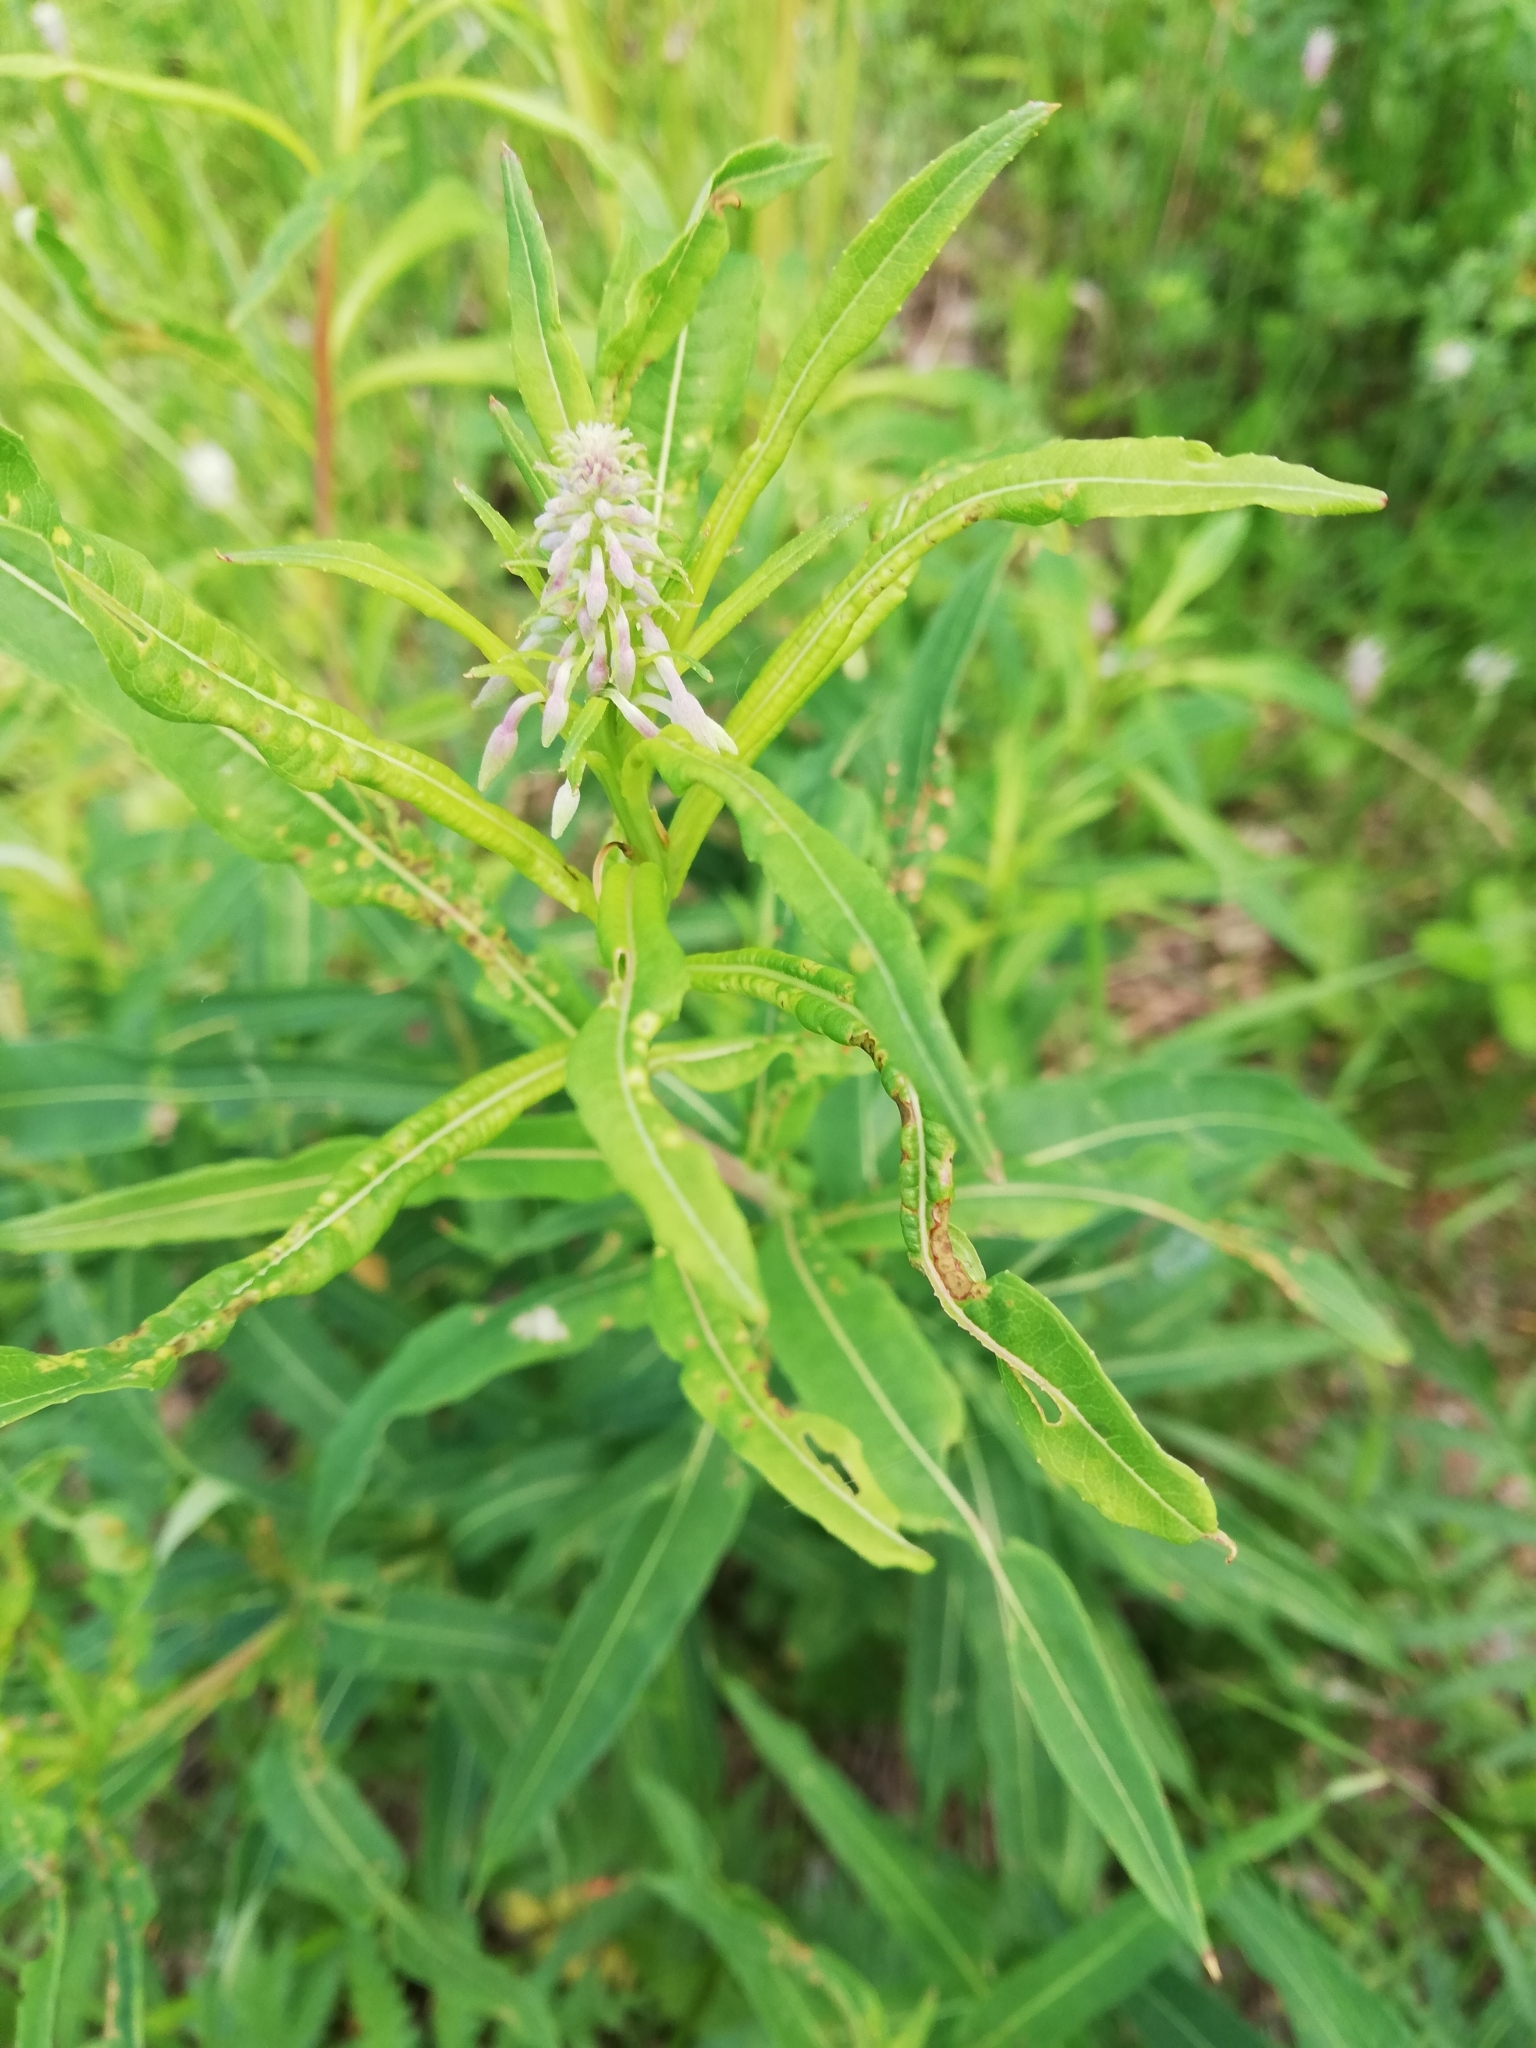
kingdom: Plantae
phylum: Tracheophyta
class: Magnoliopsida
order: Myrtales
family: Onagraceae
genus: Chamaenerion
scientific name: Chamaenerion angustifolium
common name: Fireweed
